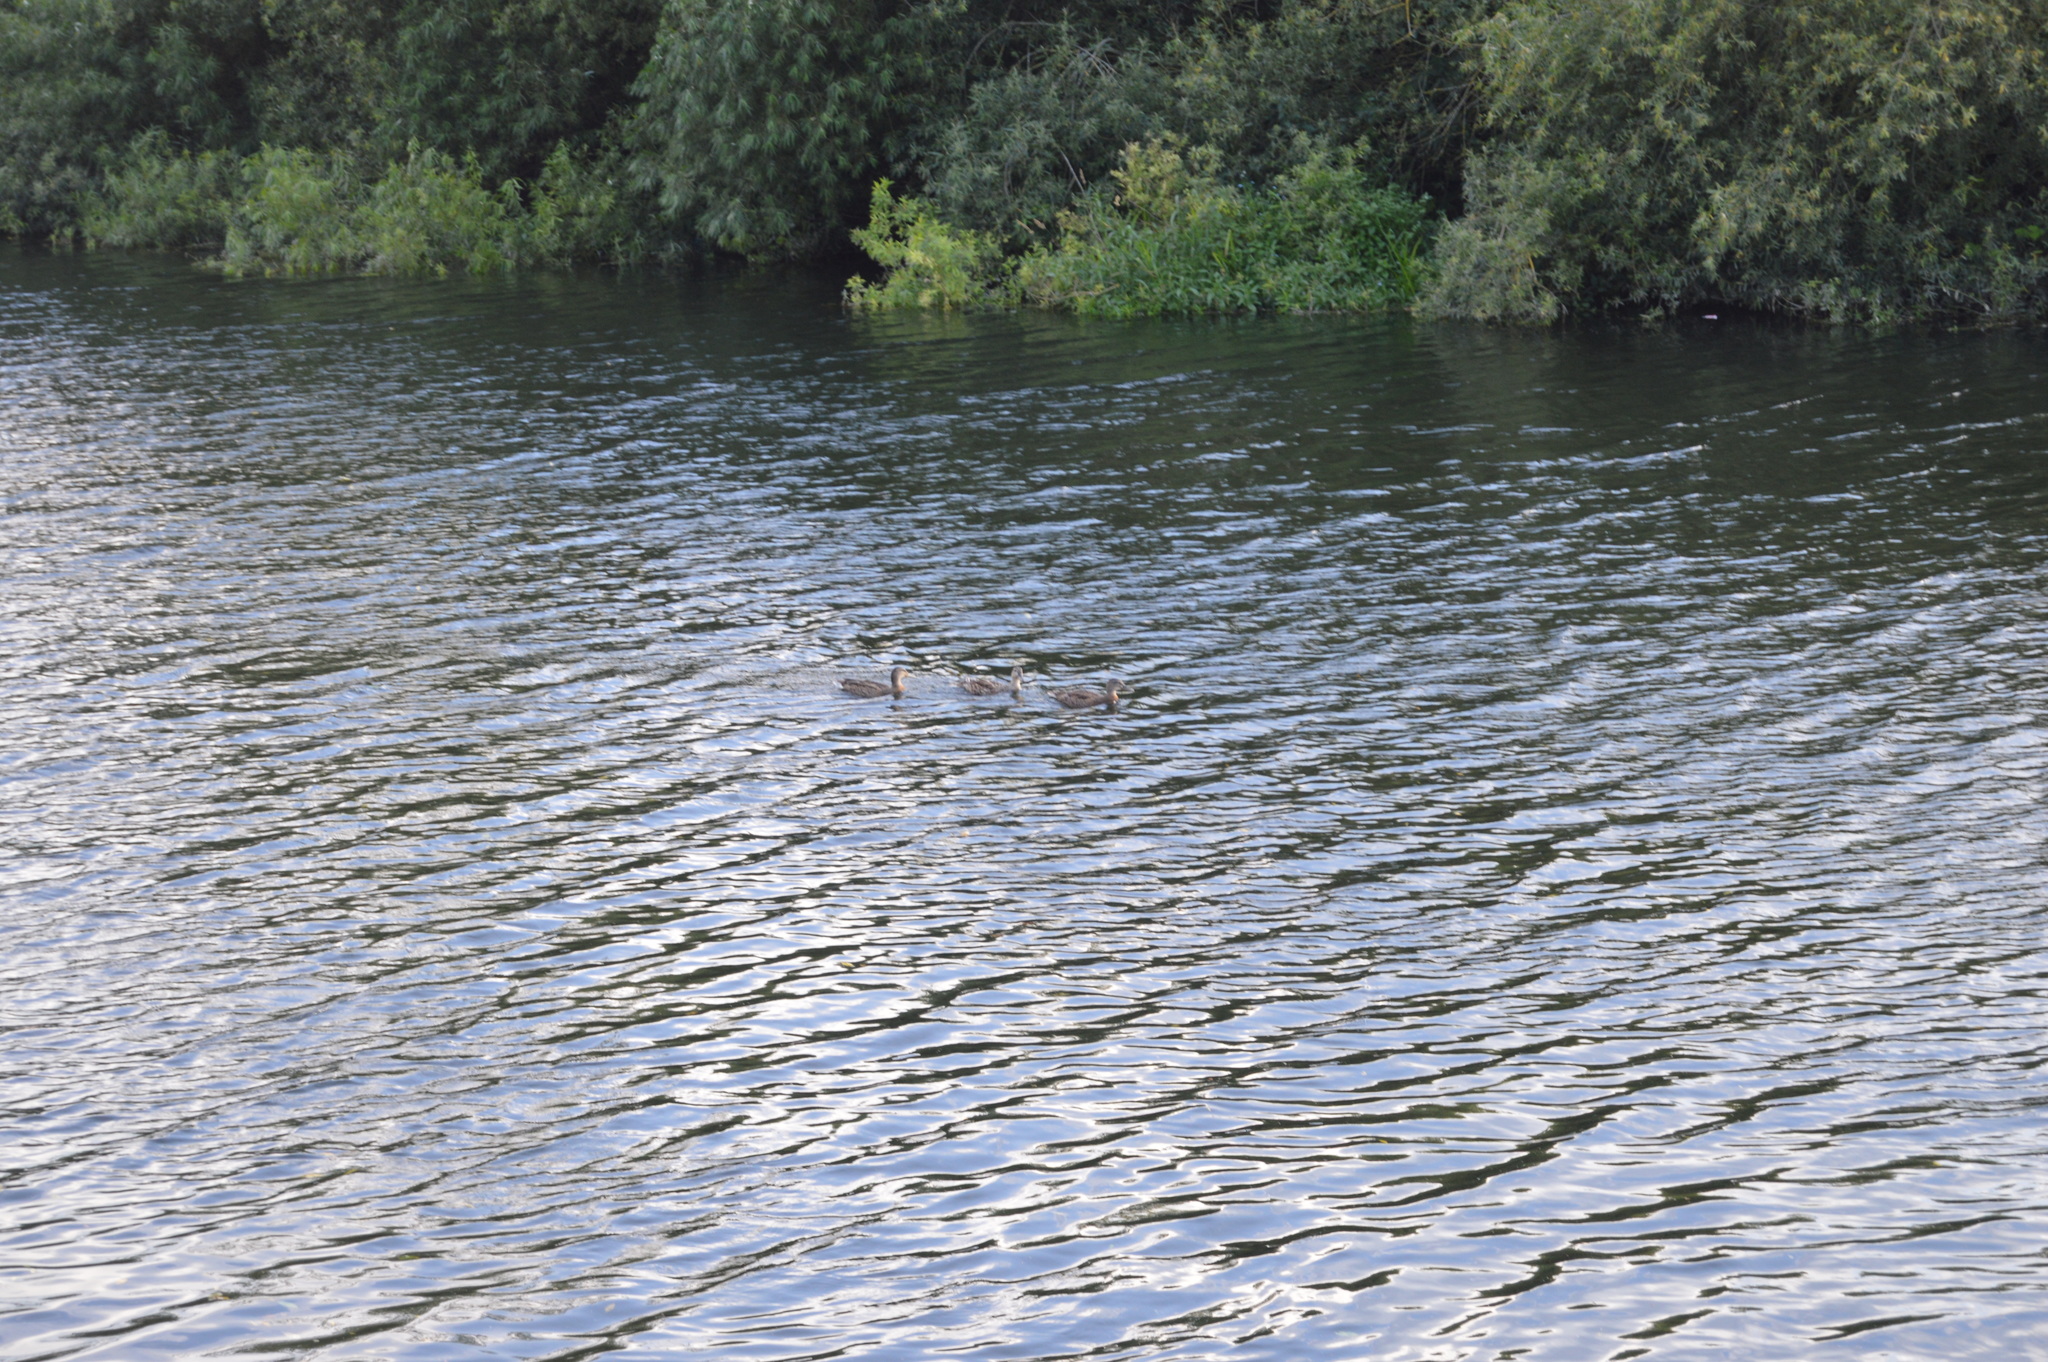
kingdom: Animalia
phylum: Chordata
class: Aves
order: Anseriformes
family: Anatidae
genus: Anas
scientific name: Anas platyrhynchos
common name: Mallard
